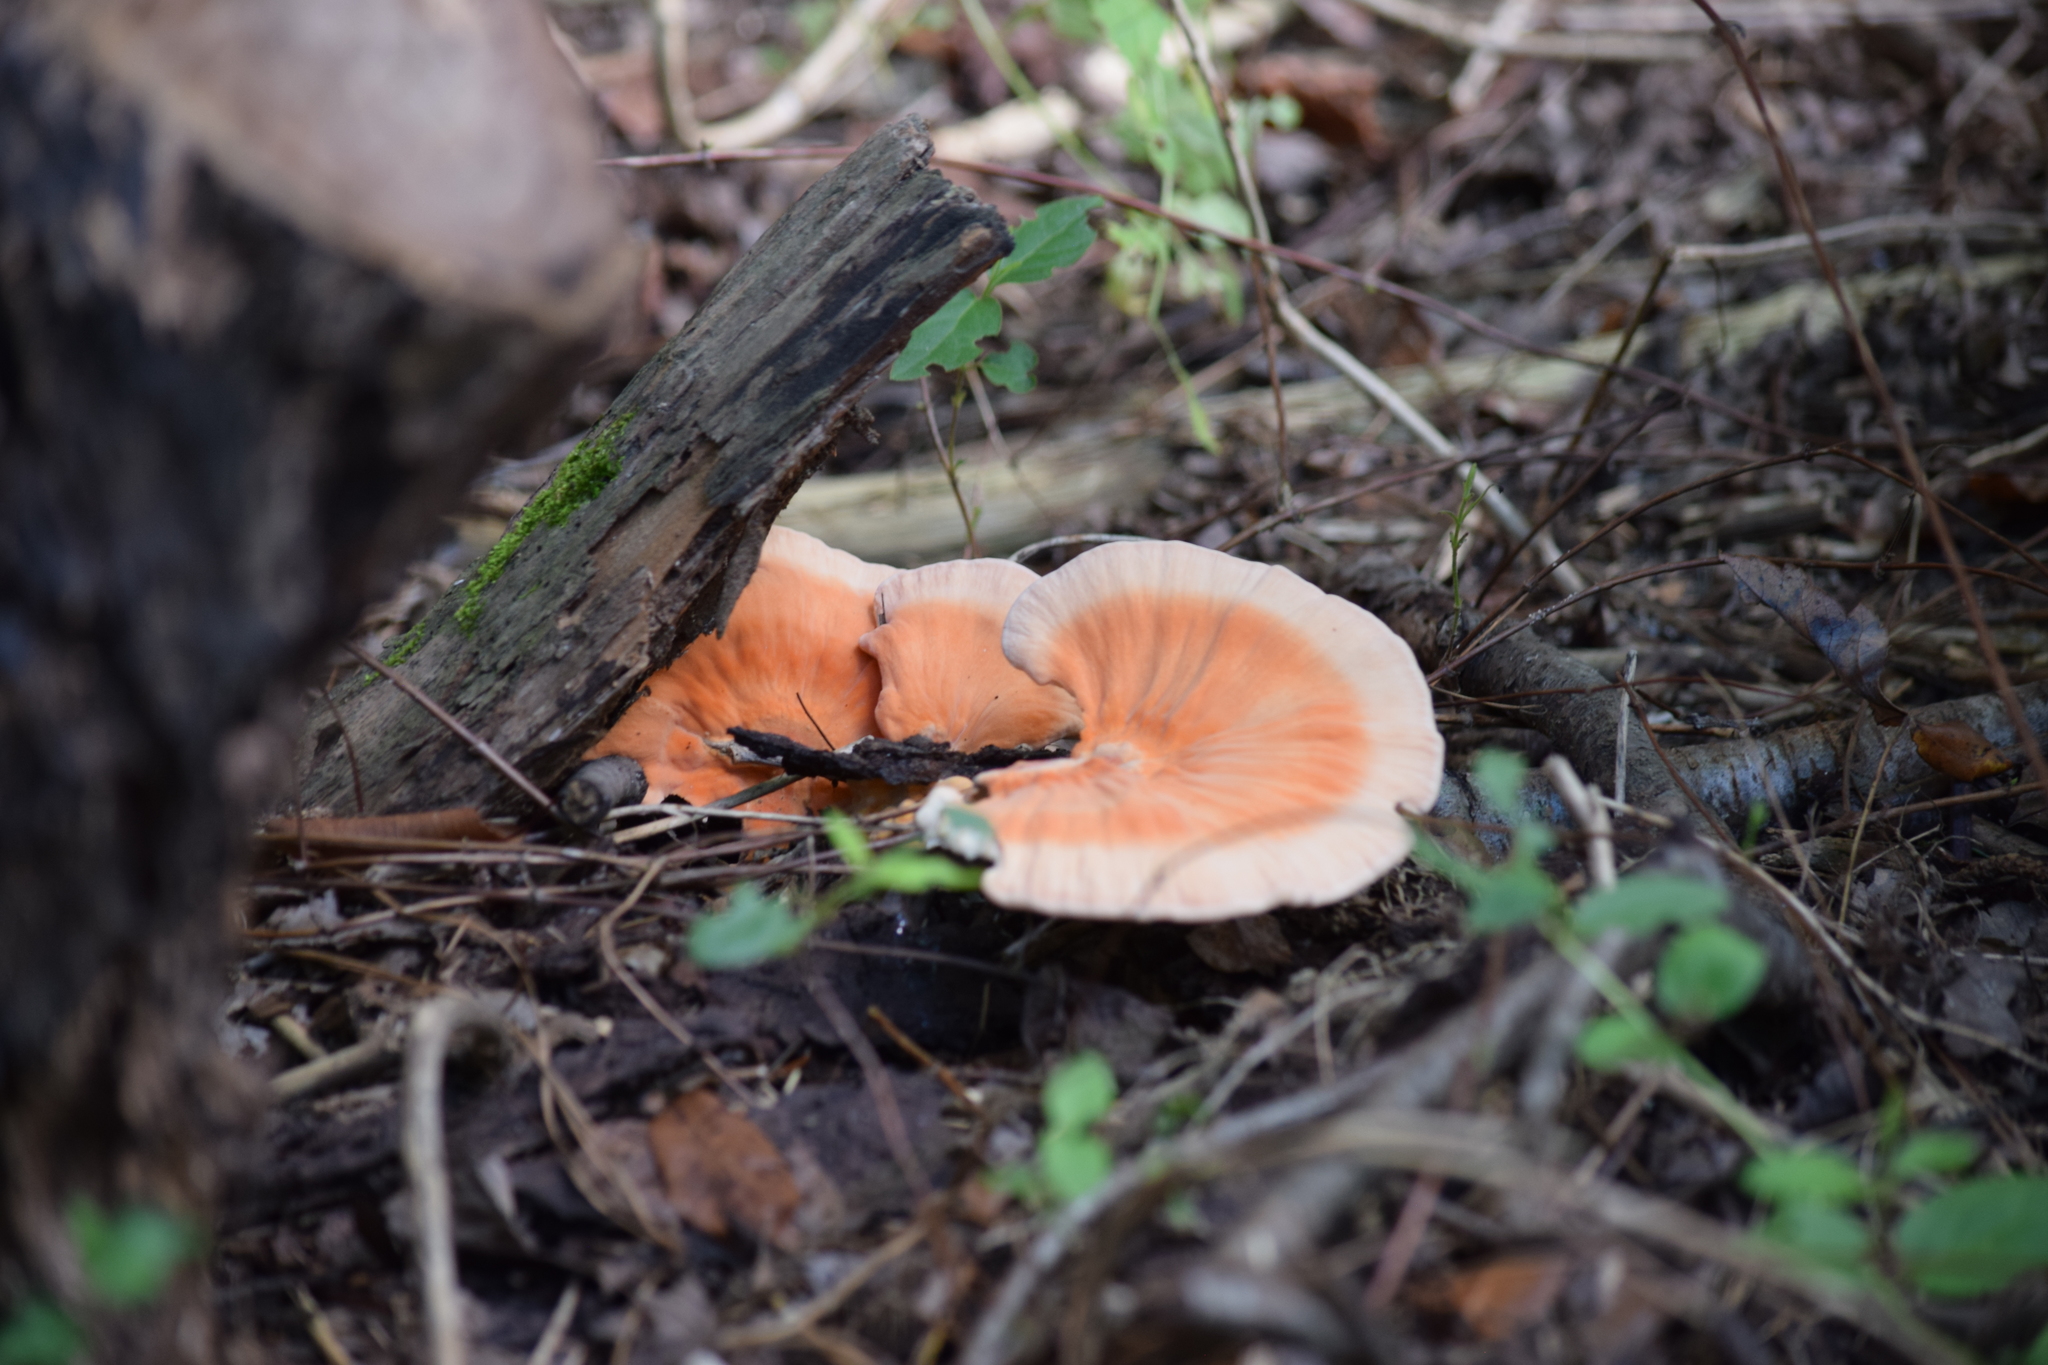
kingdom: Fungi
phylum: Basidiomycota
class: Agaricomycetes
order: Polyporales
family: Laetiporaceae
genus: Laetiporus
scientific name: Laetiporus sulphureus
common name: Chicken of the woods
